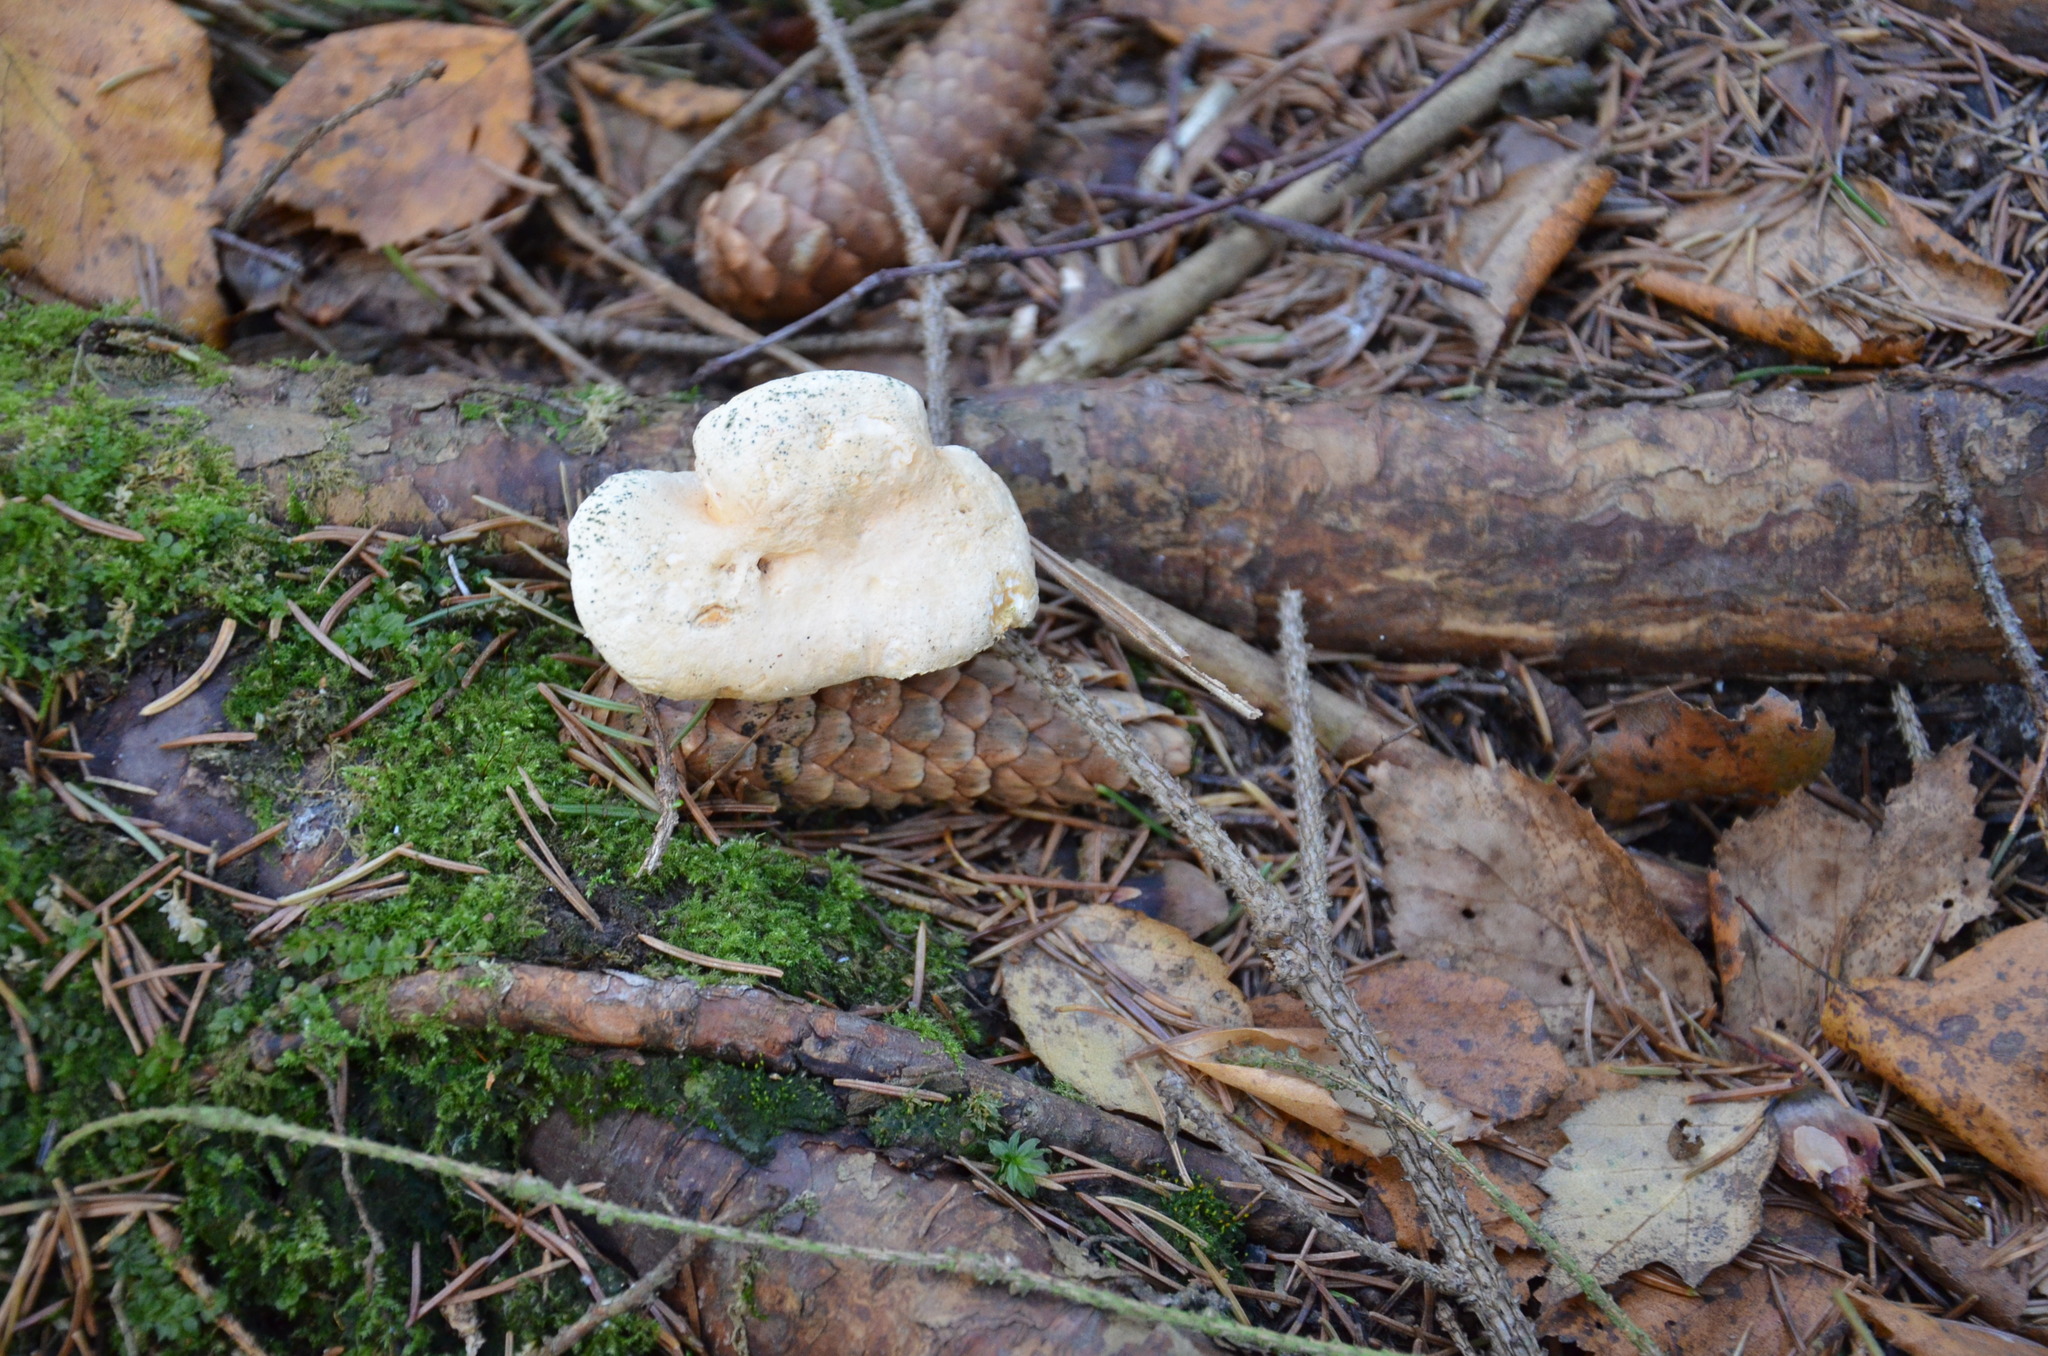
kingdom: Fungi
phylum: Basidiomycota
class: Agaricomycetes
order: Cantharellales
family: Hydnaceae
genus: Hydnum
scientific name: Hydnum repandum
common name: Wood hedgehog
